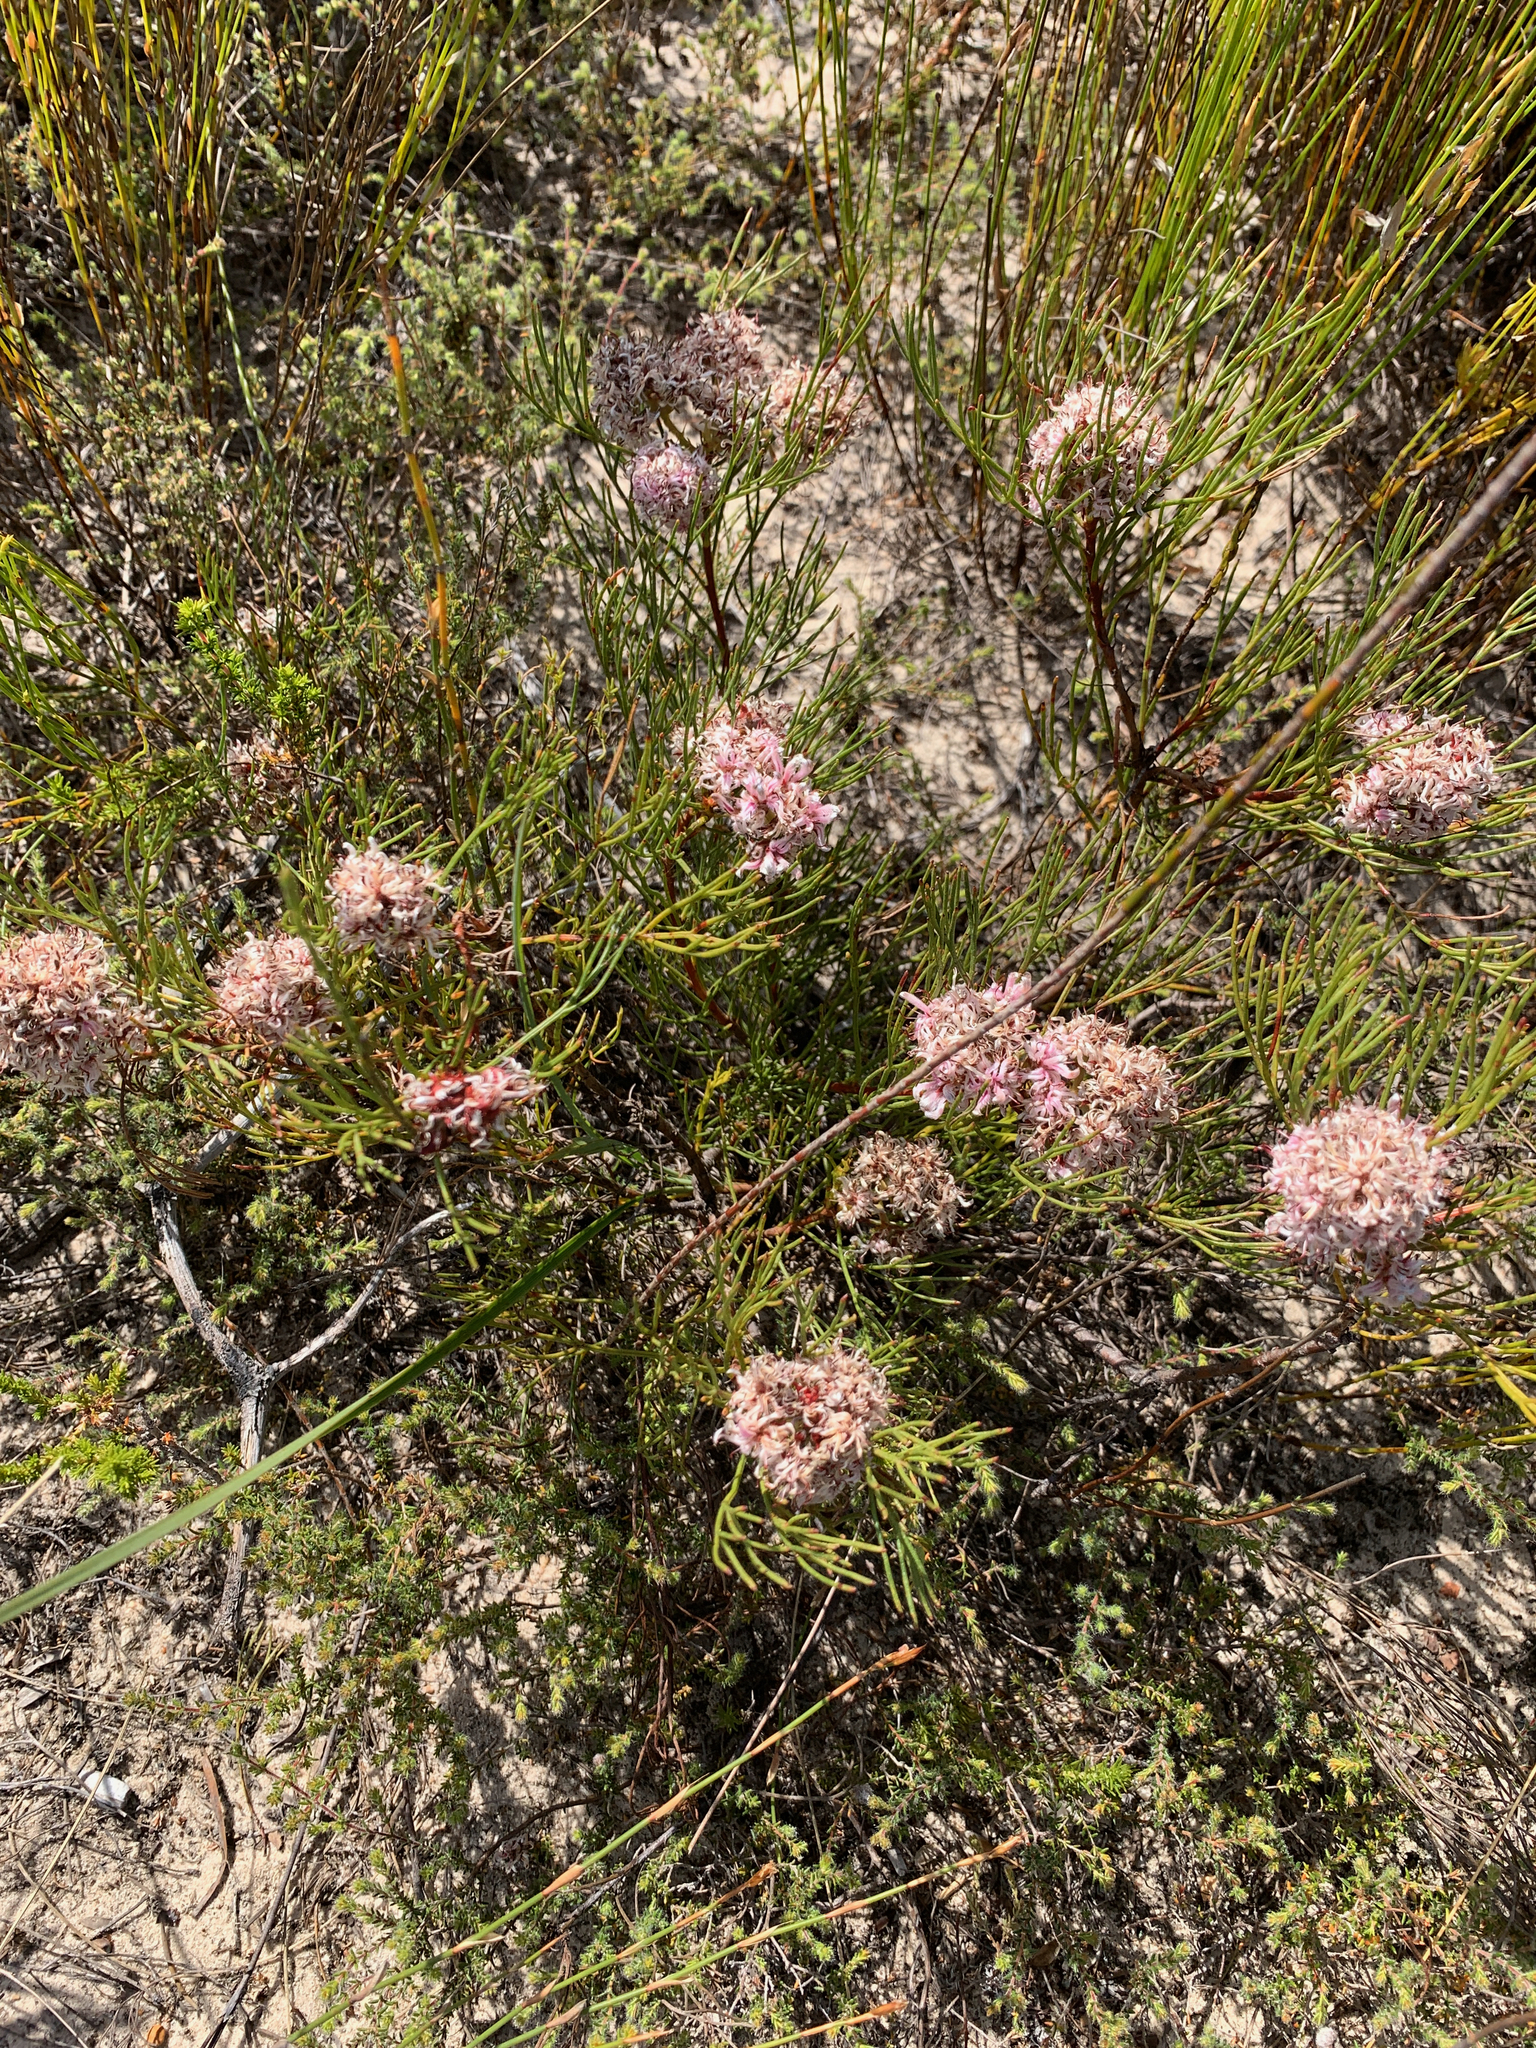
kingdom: Plantae
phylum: Tracheophyta
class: Magnoliopsida
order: Proteales
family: Proteaceae
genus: Serruria
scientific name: Serruria rubricaulis
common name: Red-stem spiderhead
